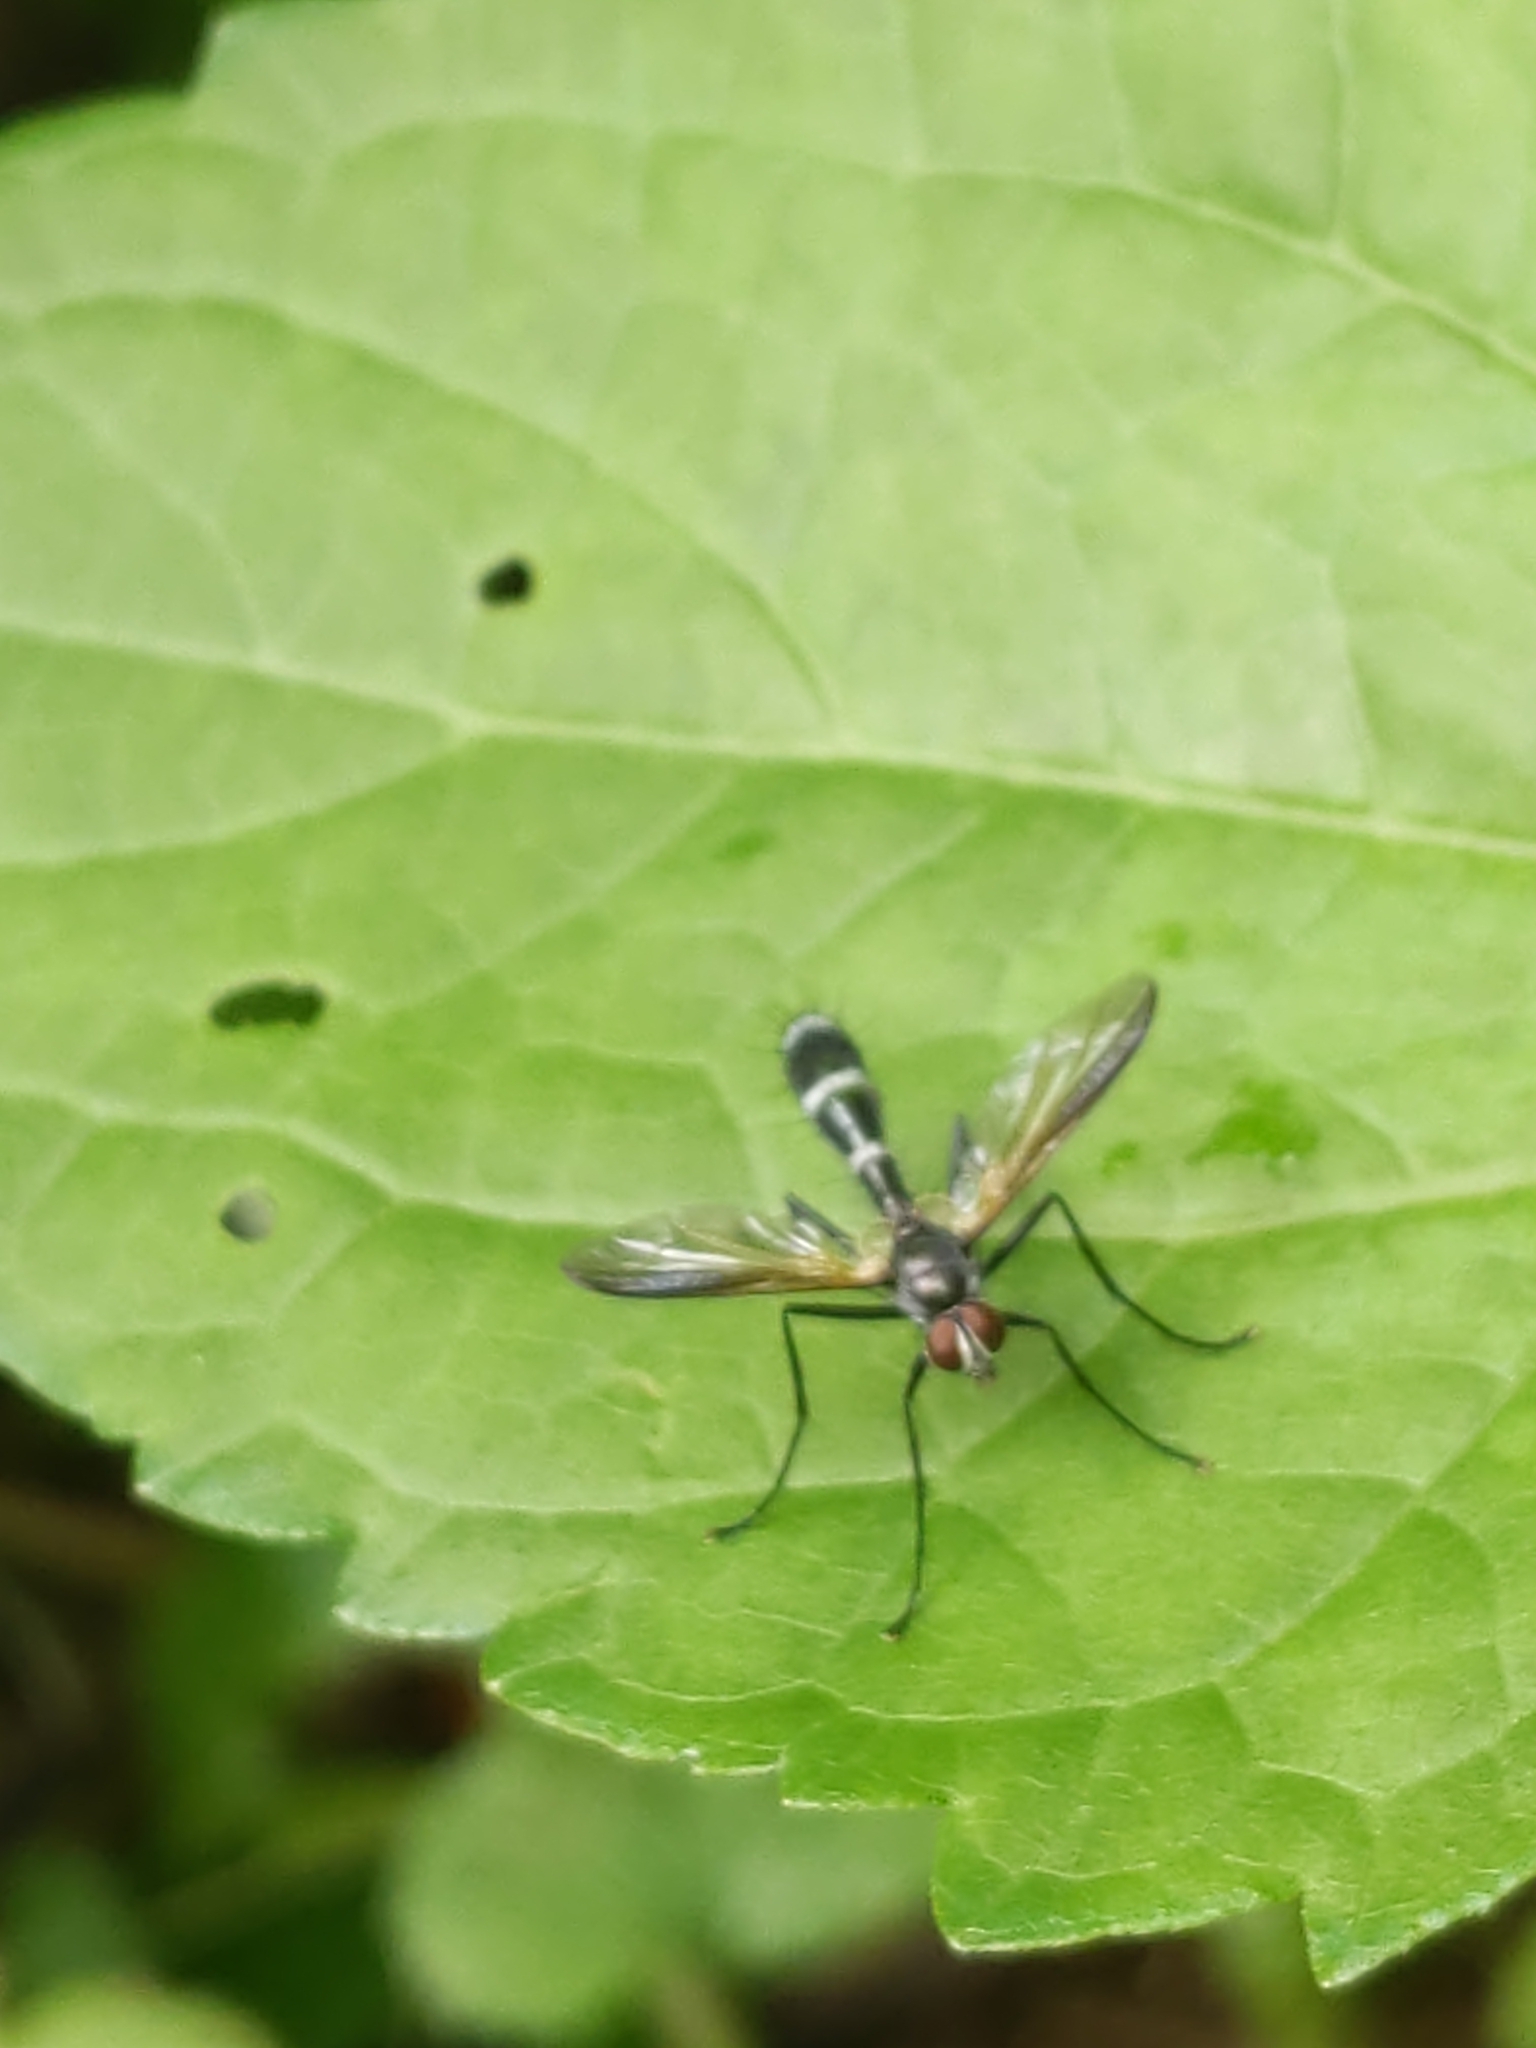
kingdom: Animalia
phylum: Arthropoda
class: Insecta
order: Diptera
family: Tachinidae
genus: Cordyligaster
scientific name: Cordyligaster septentrionalis
